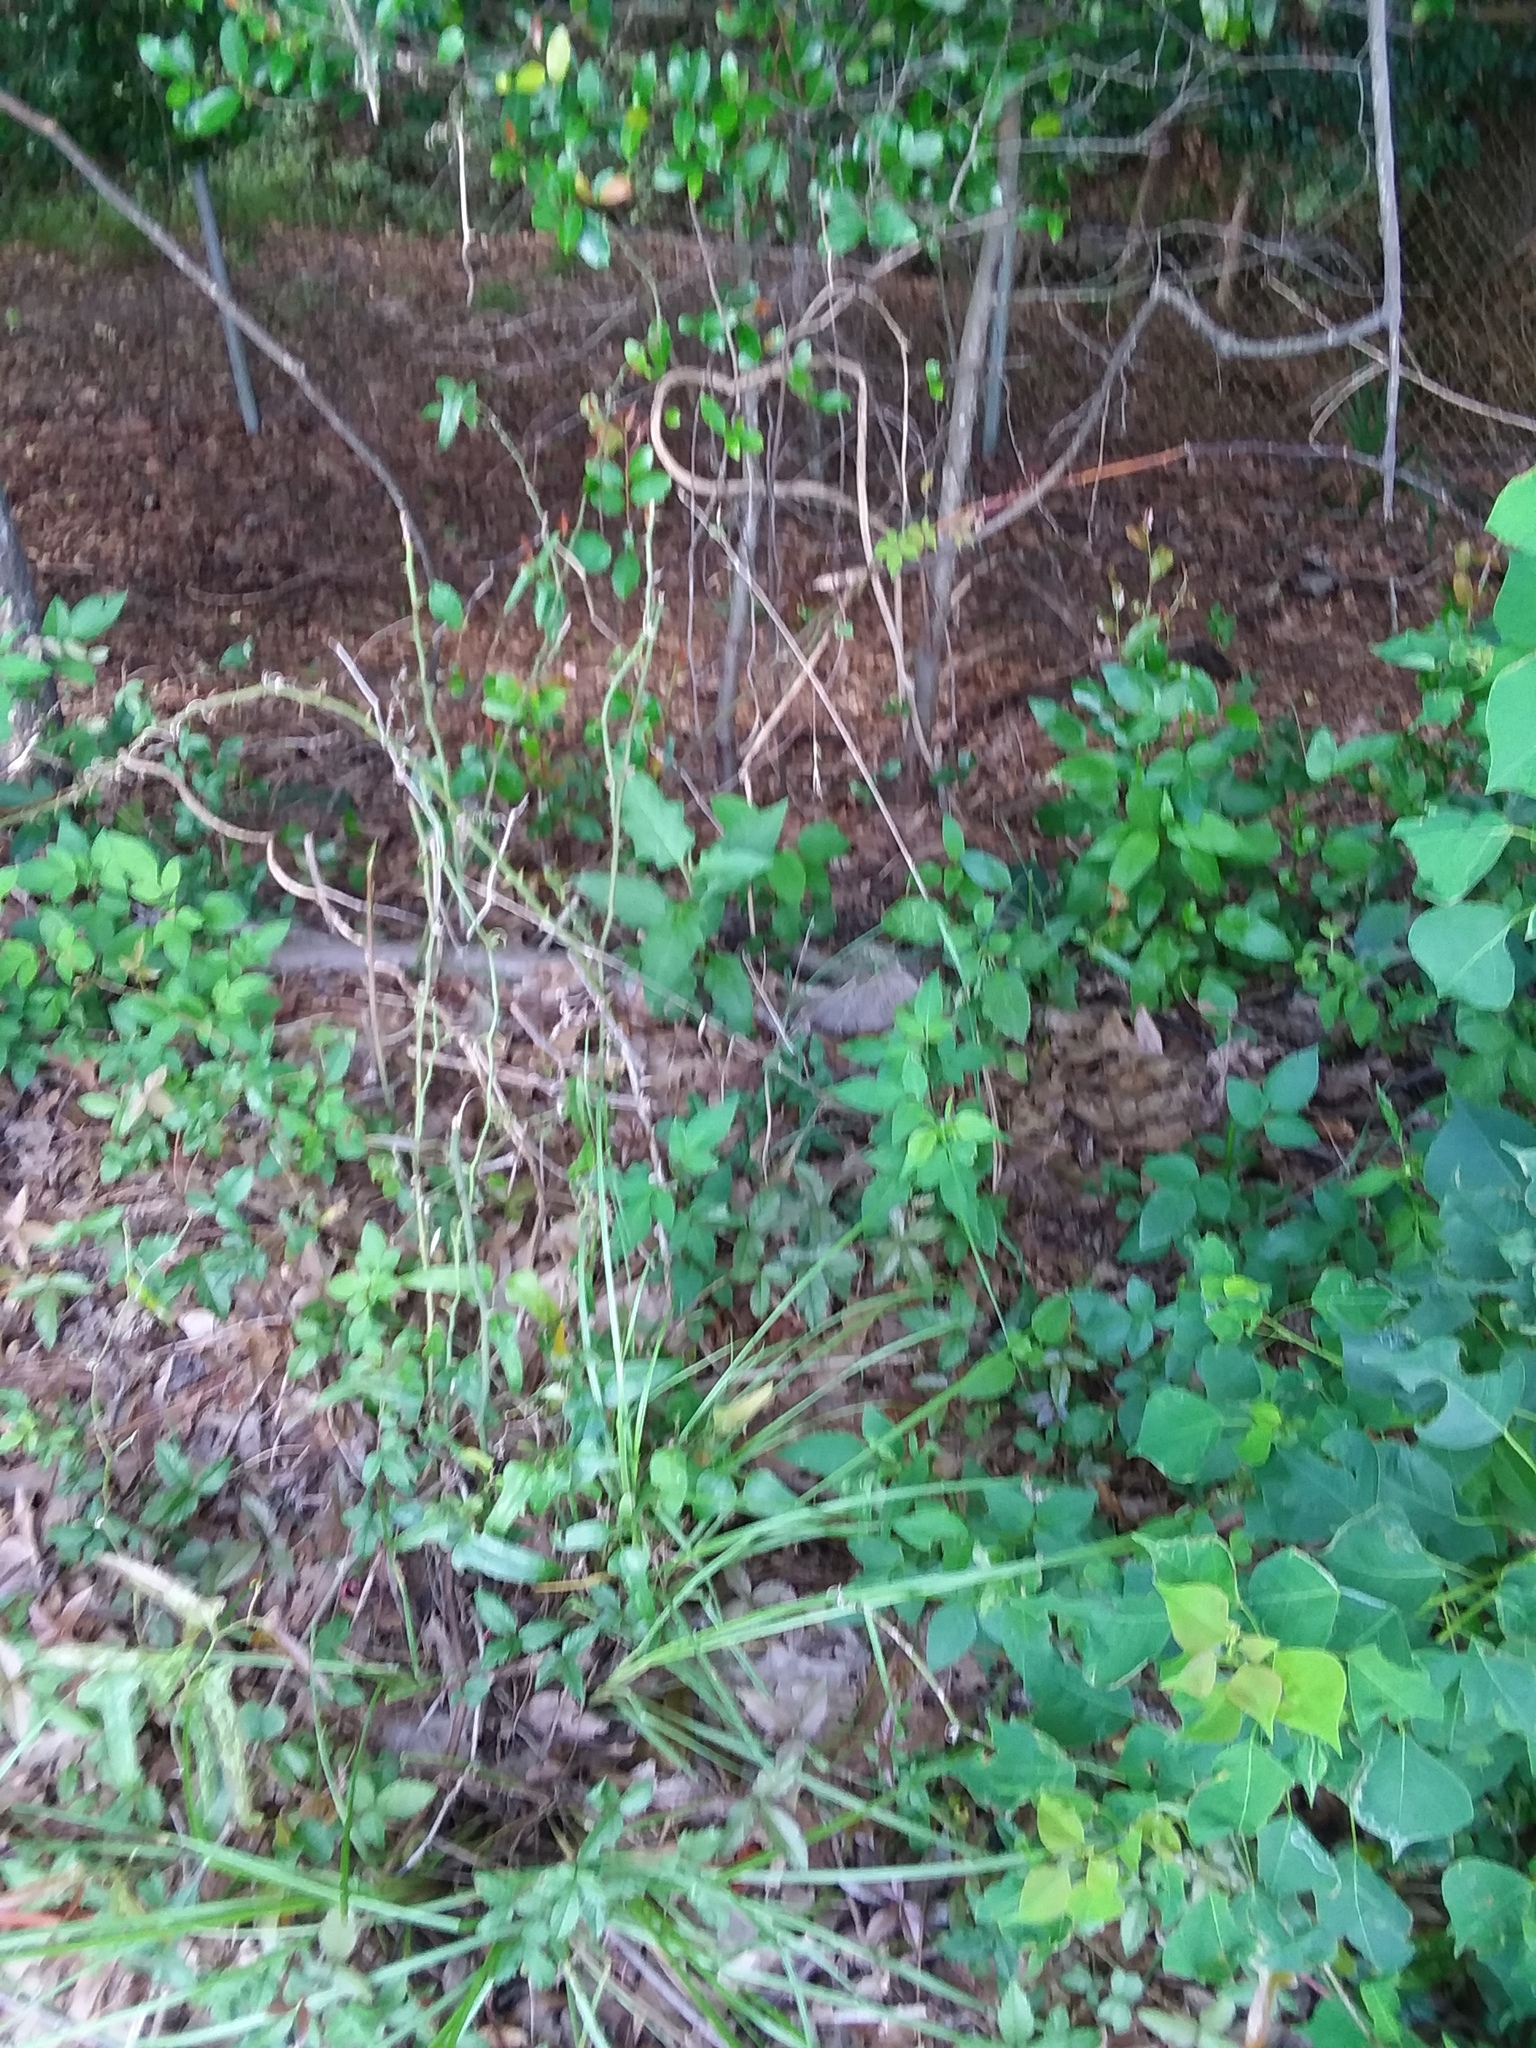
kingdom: Plantae
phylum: Tracheophyta
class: Magnoliopsida
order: Solanales
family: Solanaceae
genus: Solanum
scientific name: Solanum carolinense
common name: Horse-nettle
